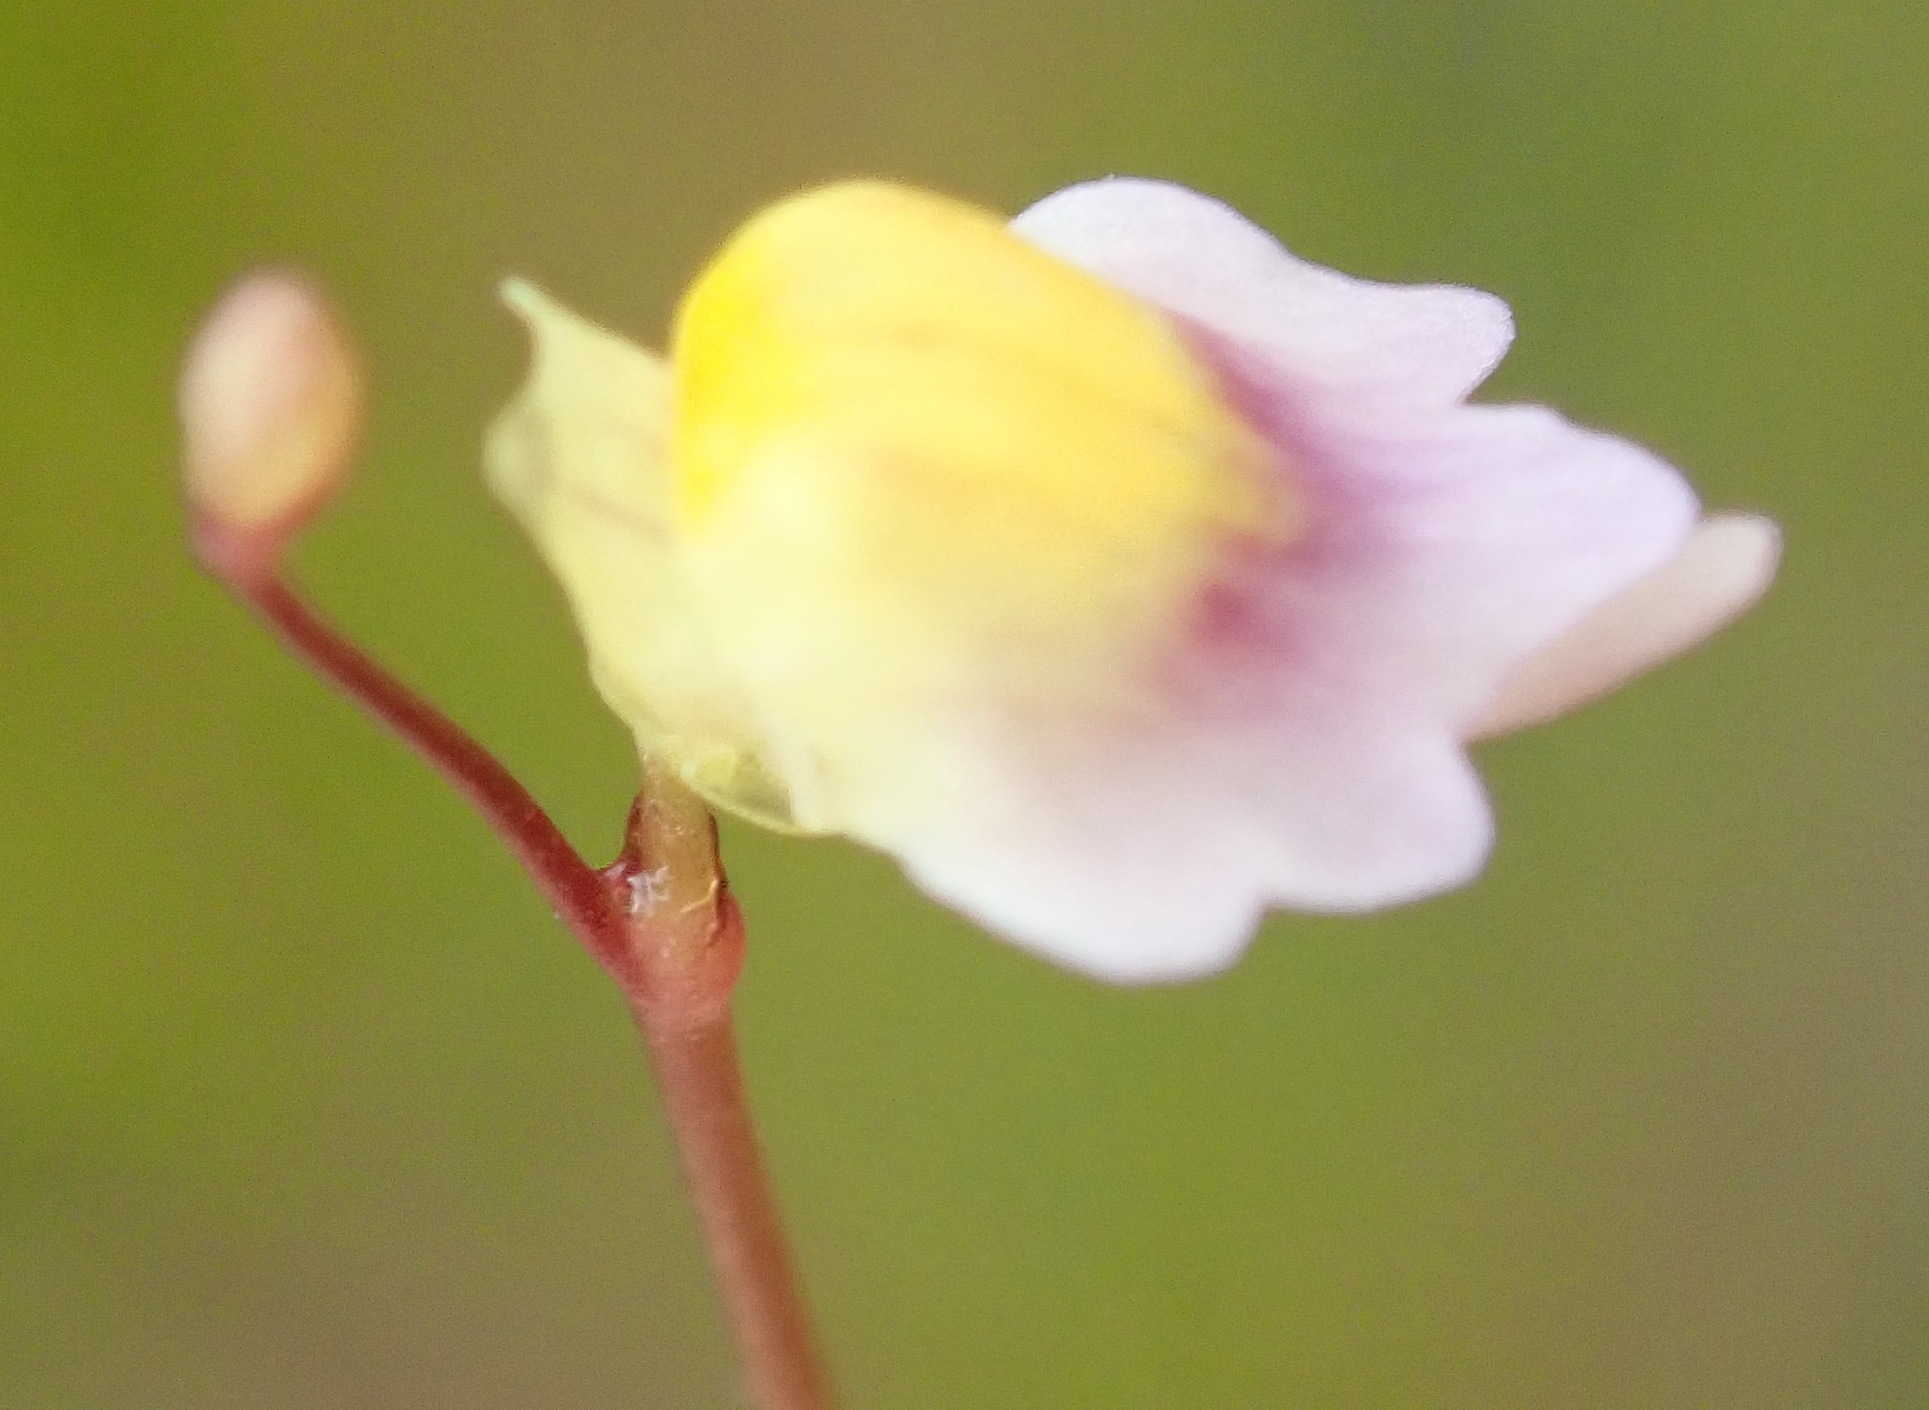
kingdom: Plantae
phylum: Tracheophyta
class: Magnoliopsida
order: Lamiales
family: Lentibulariaceae
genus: Utricularia
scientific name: Utricularia bisquamata
